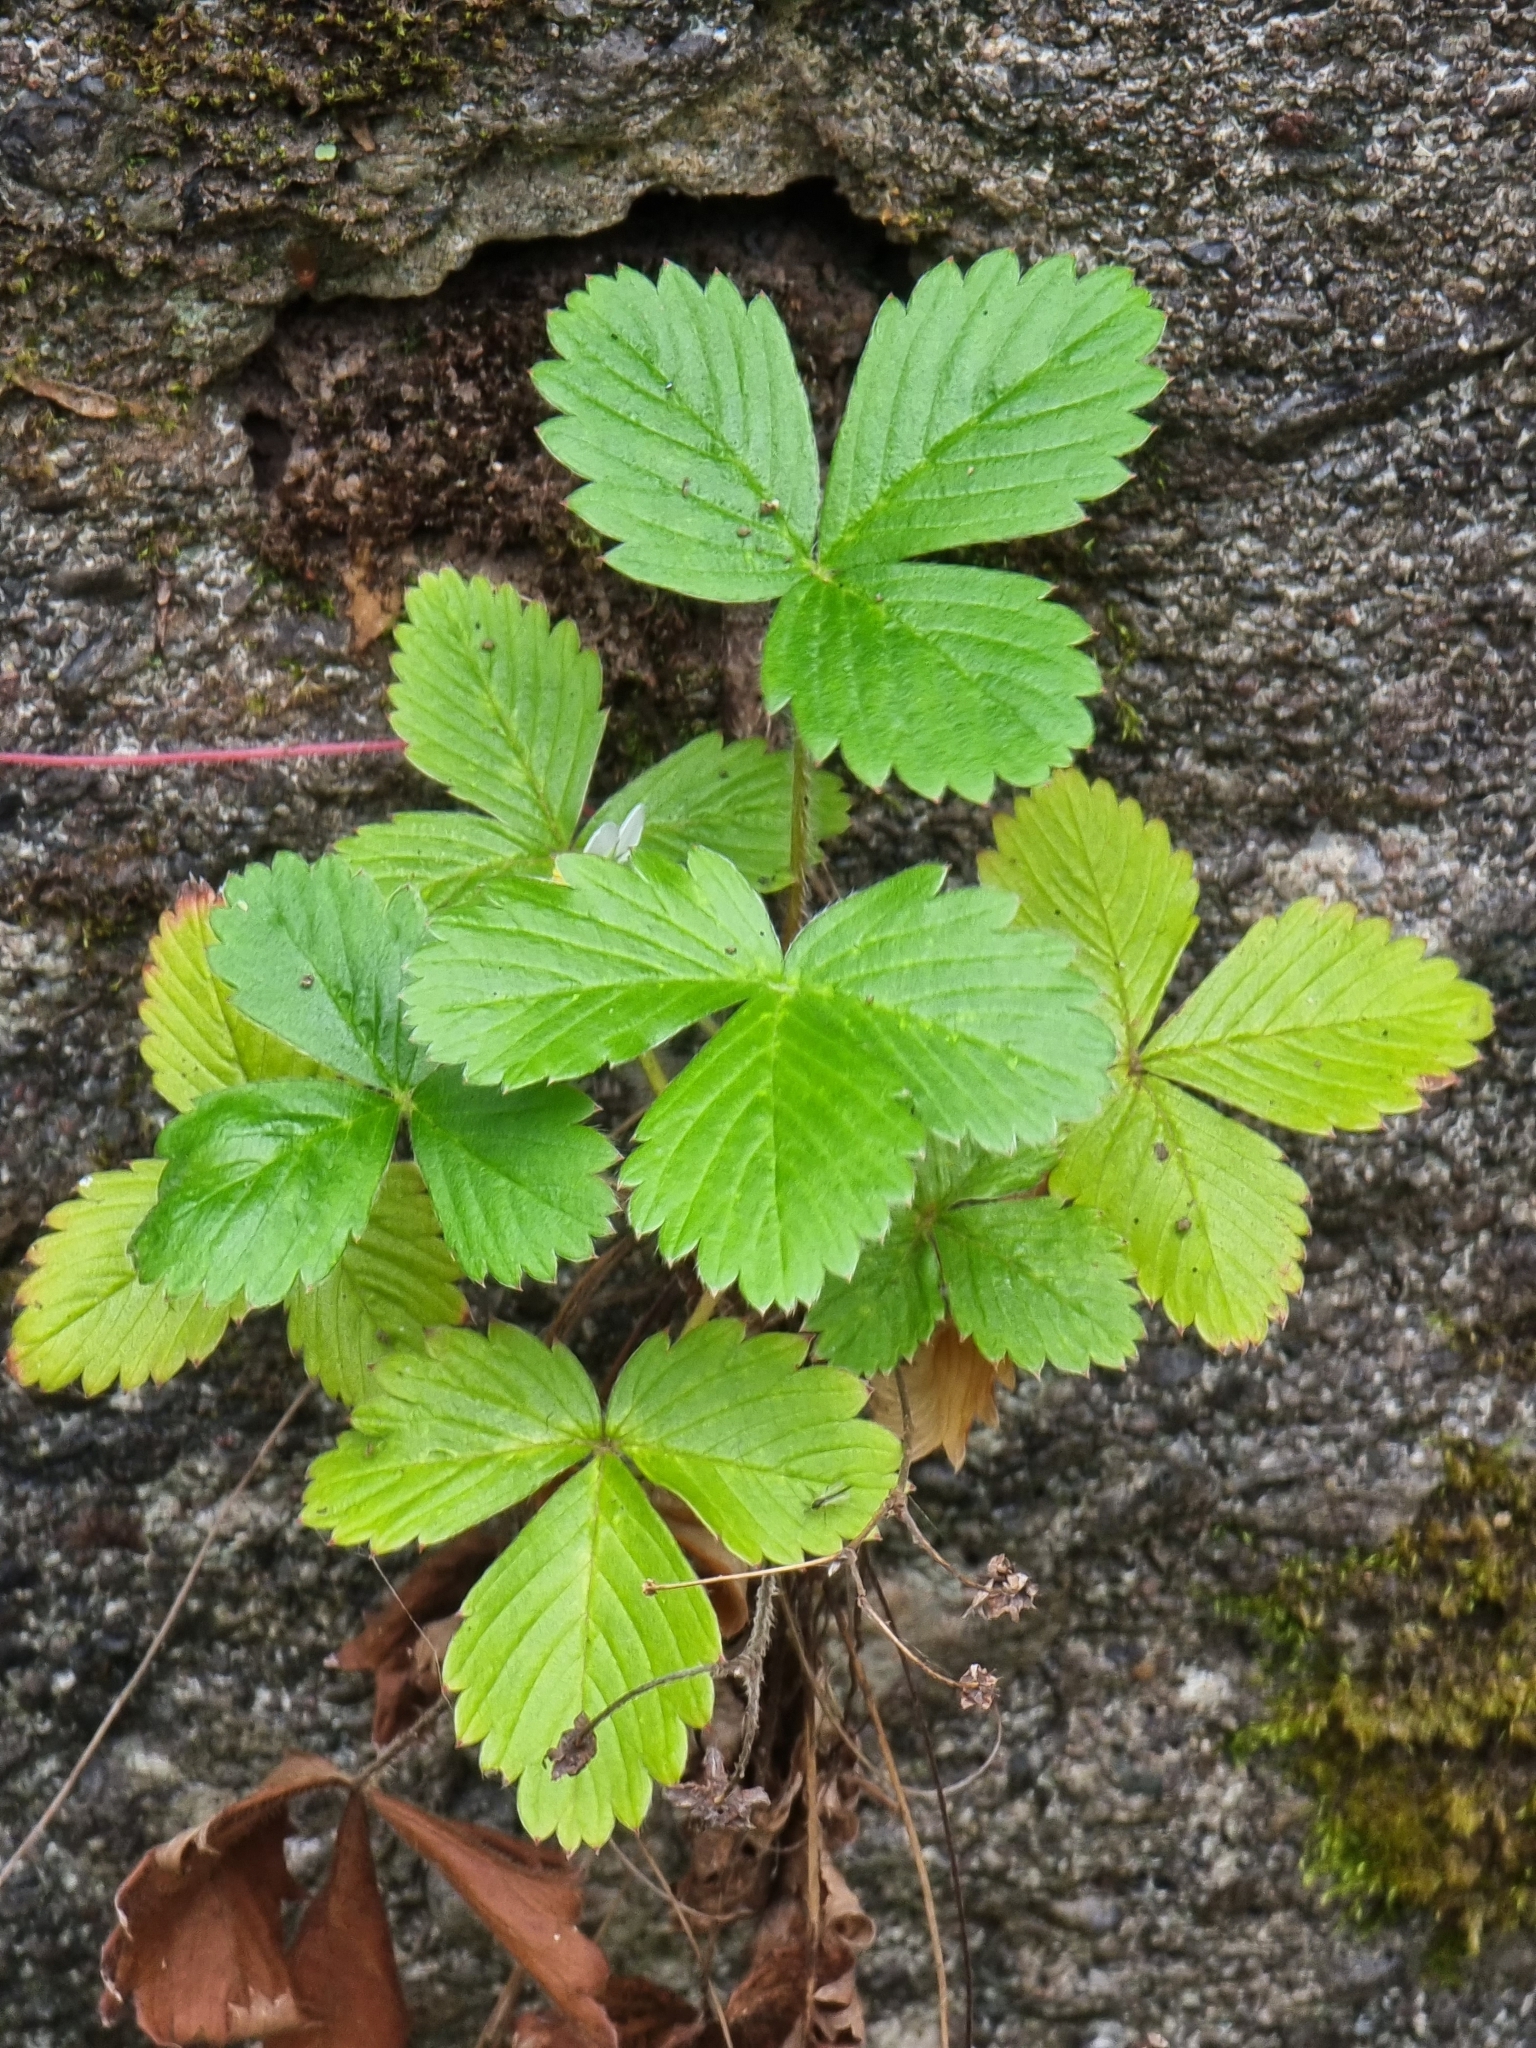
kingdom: Plantae
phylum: Tracheophyta
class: Magnoliopsida
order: Rosales
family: Rosaceae
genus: Fragaria
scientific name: Fragaria vesca
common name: Wild strawberry
